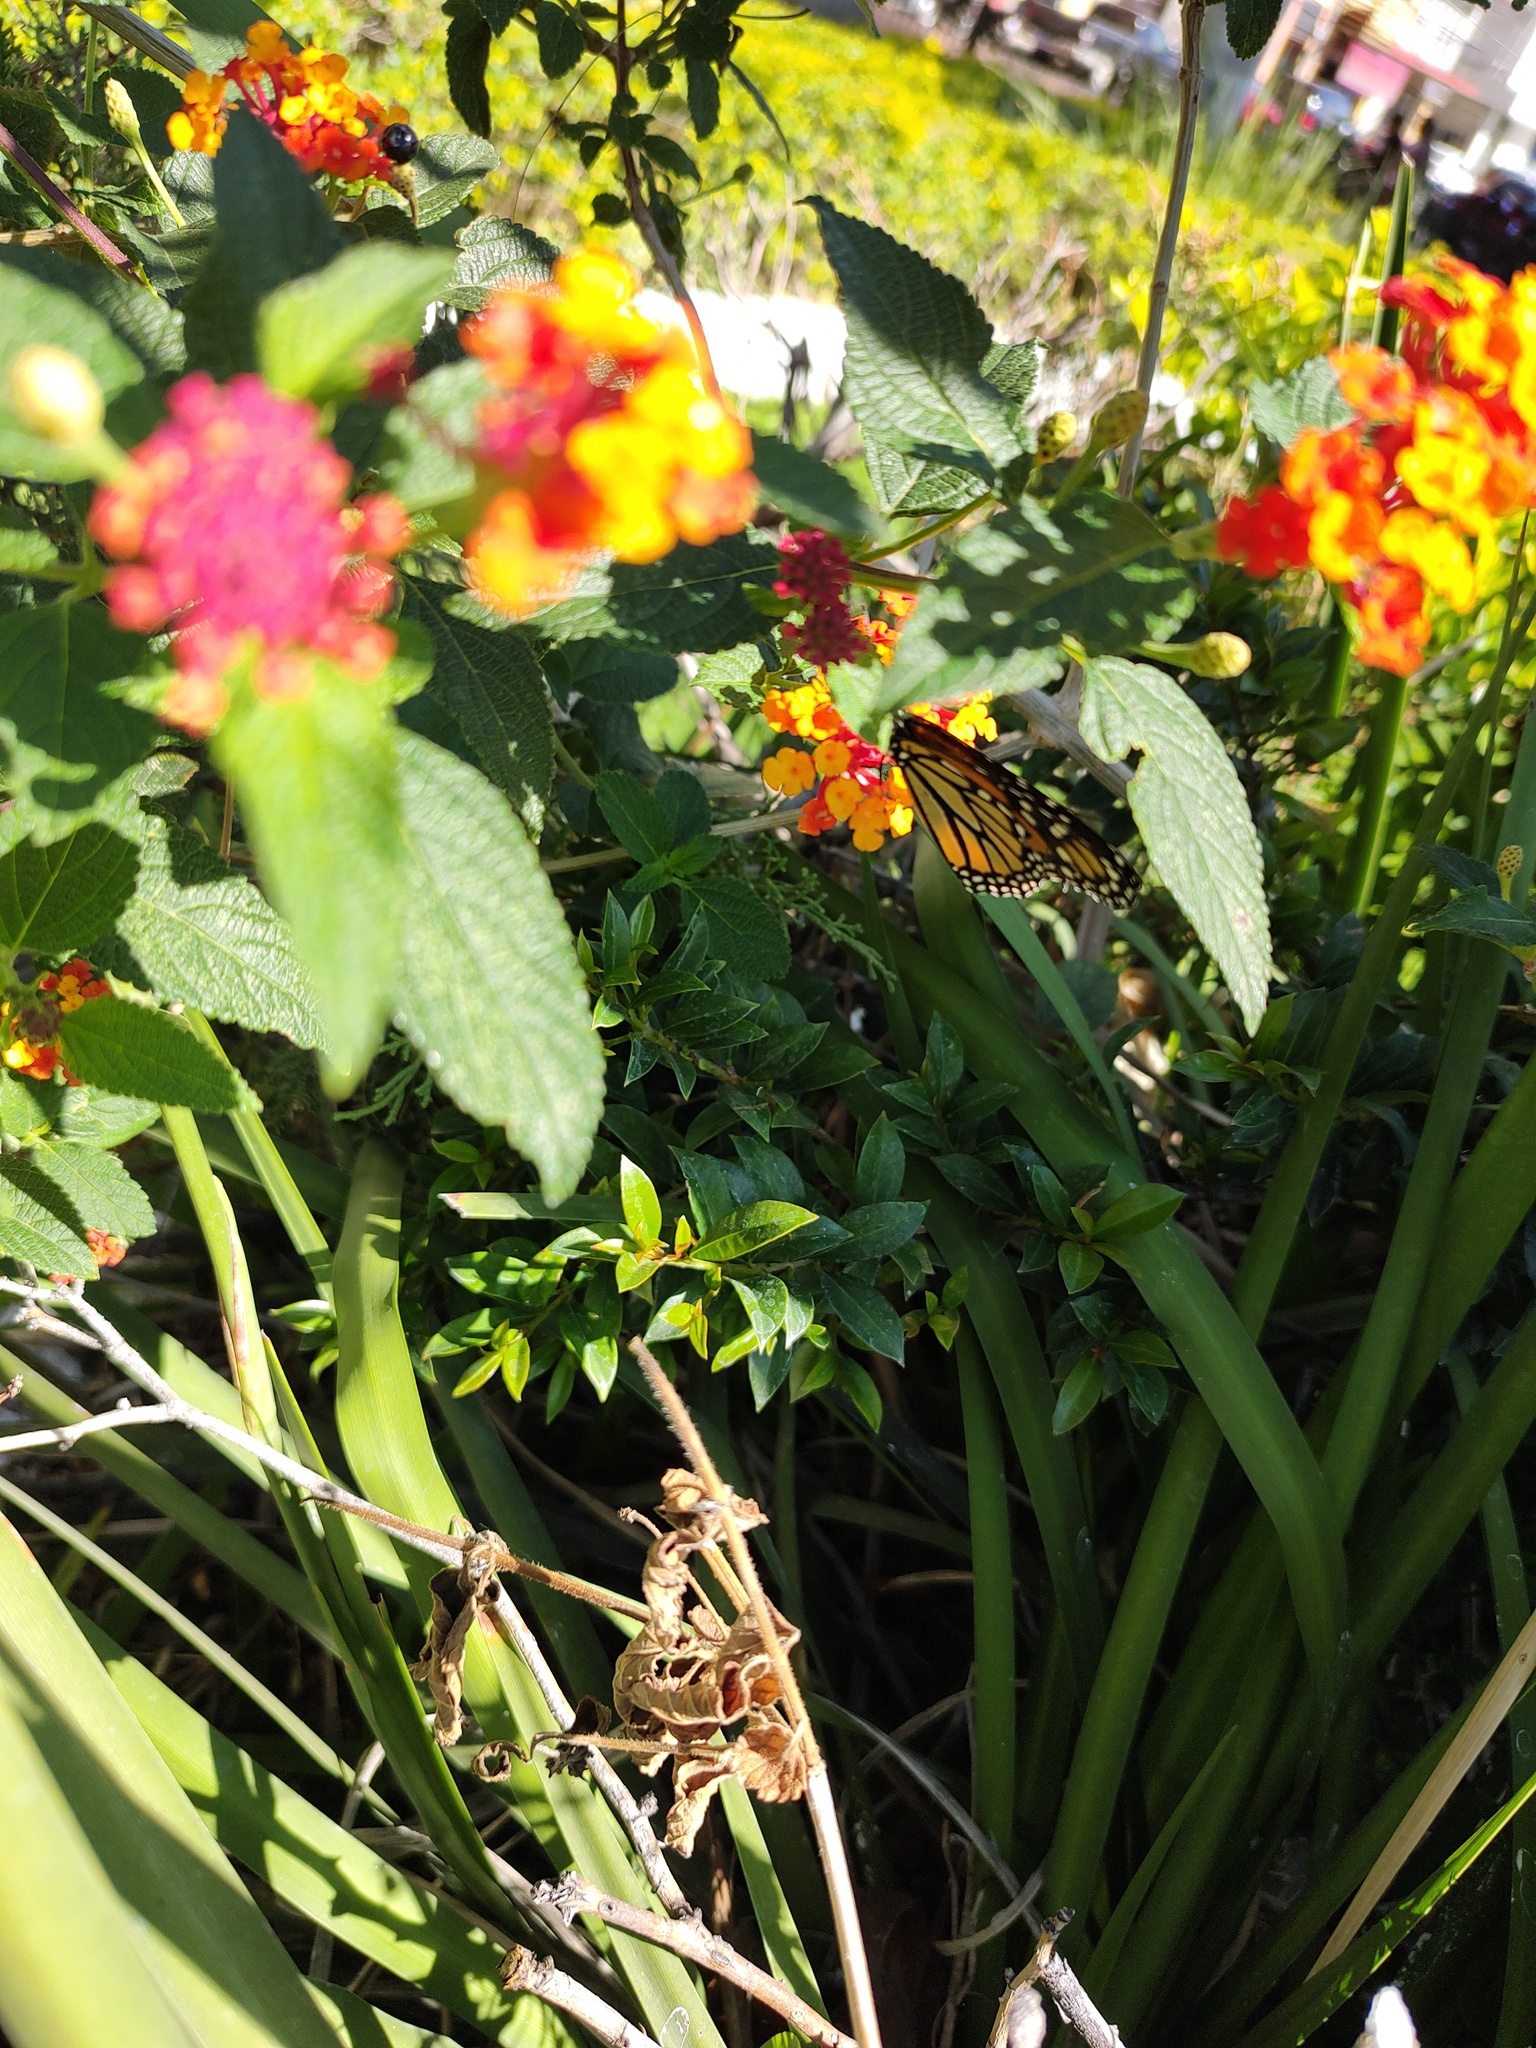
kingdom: Animalia
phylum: Arthropoda
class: Insecta
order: Lepidoptera
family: Nymphalidae
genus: Danaus
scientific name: Danaus plexippus
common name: Monarch
